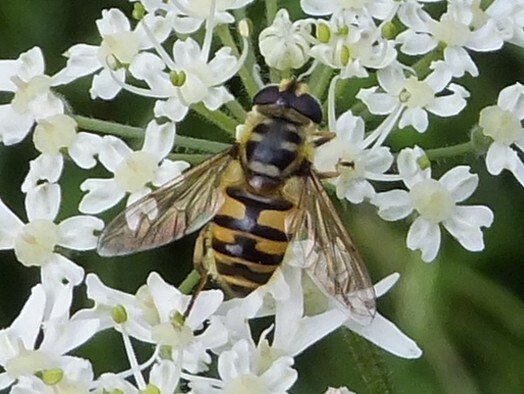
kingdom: Animalia
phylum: Arthropoda
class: Insecta
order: Diptera
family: Syrphidae
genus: Myathropa
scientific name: Myathropa florea
